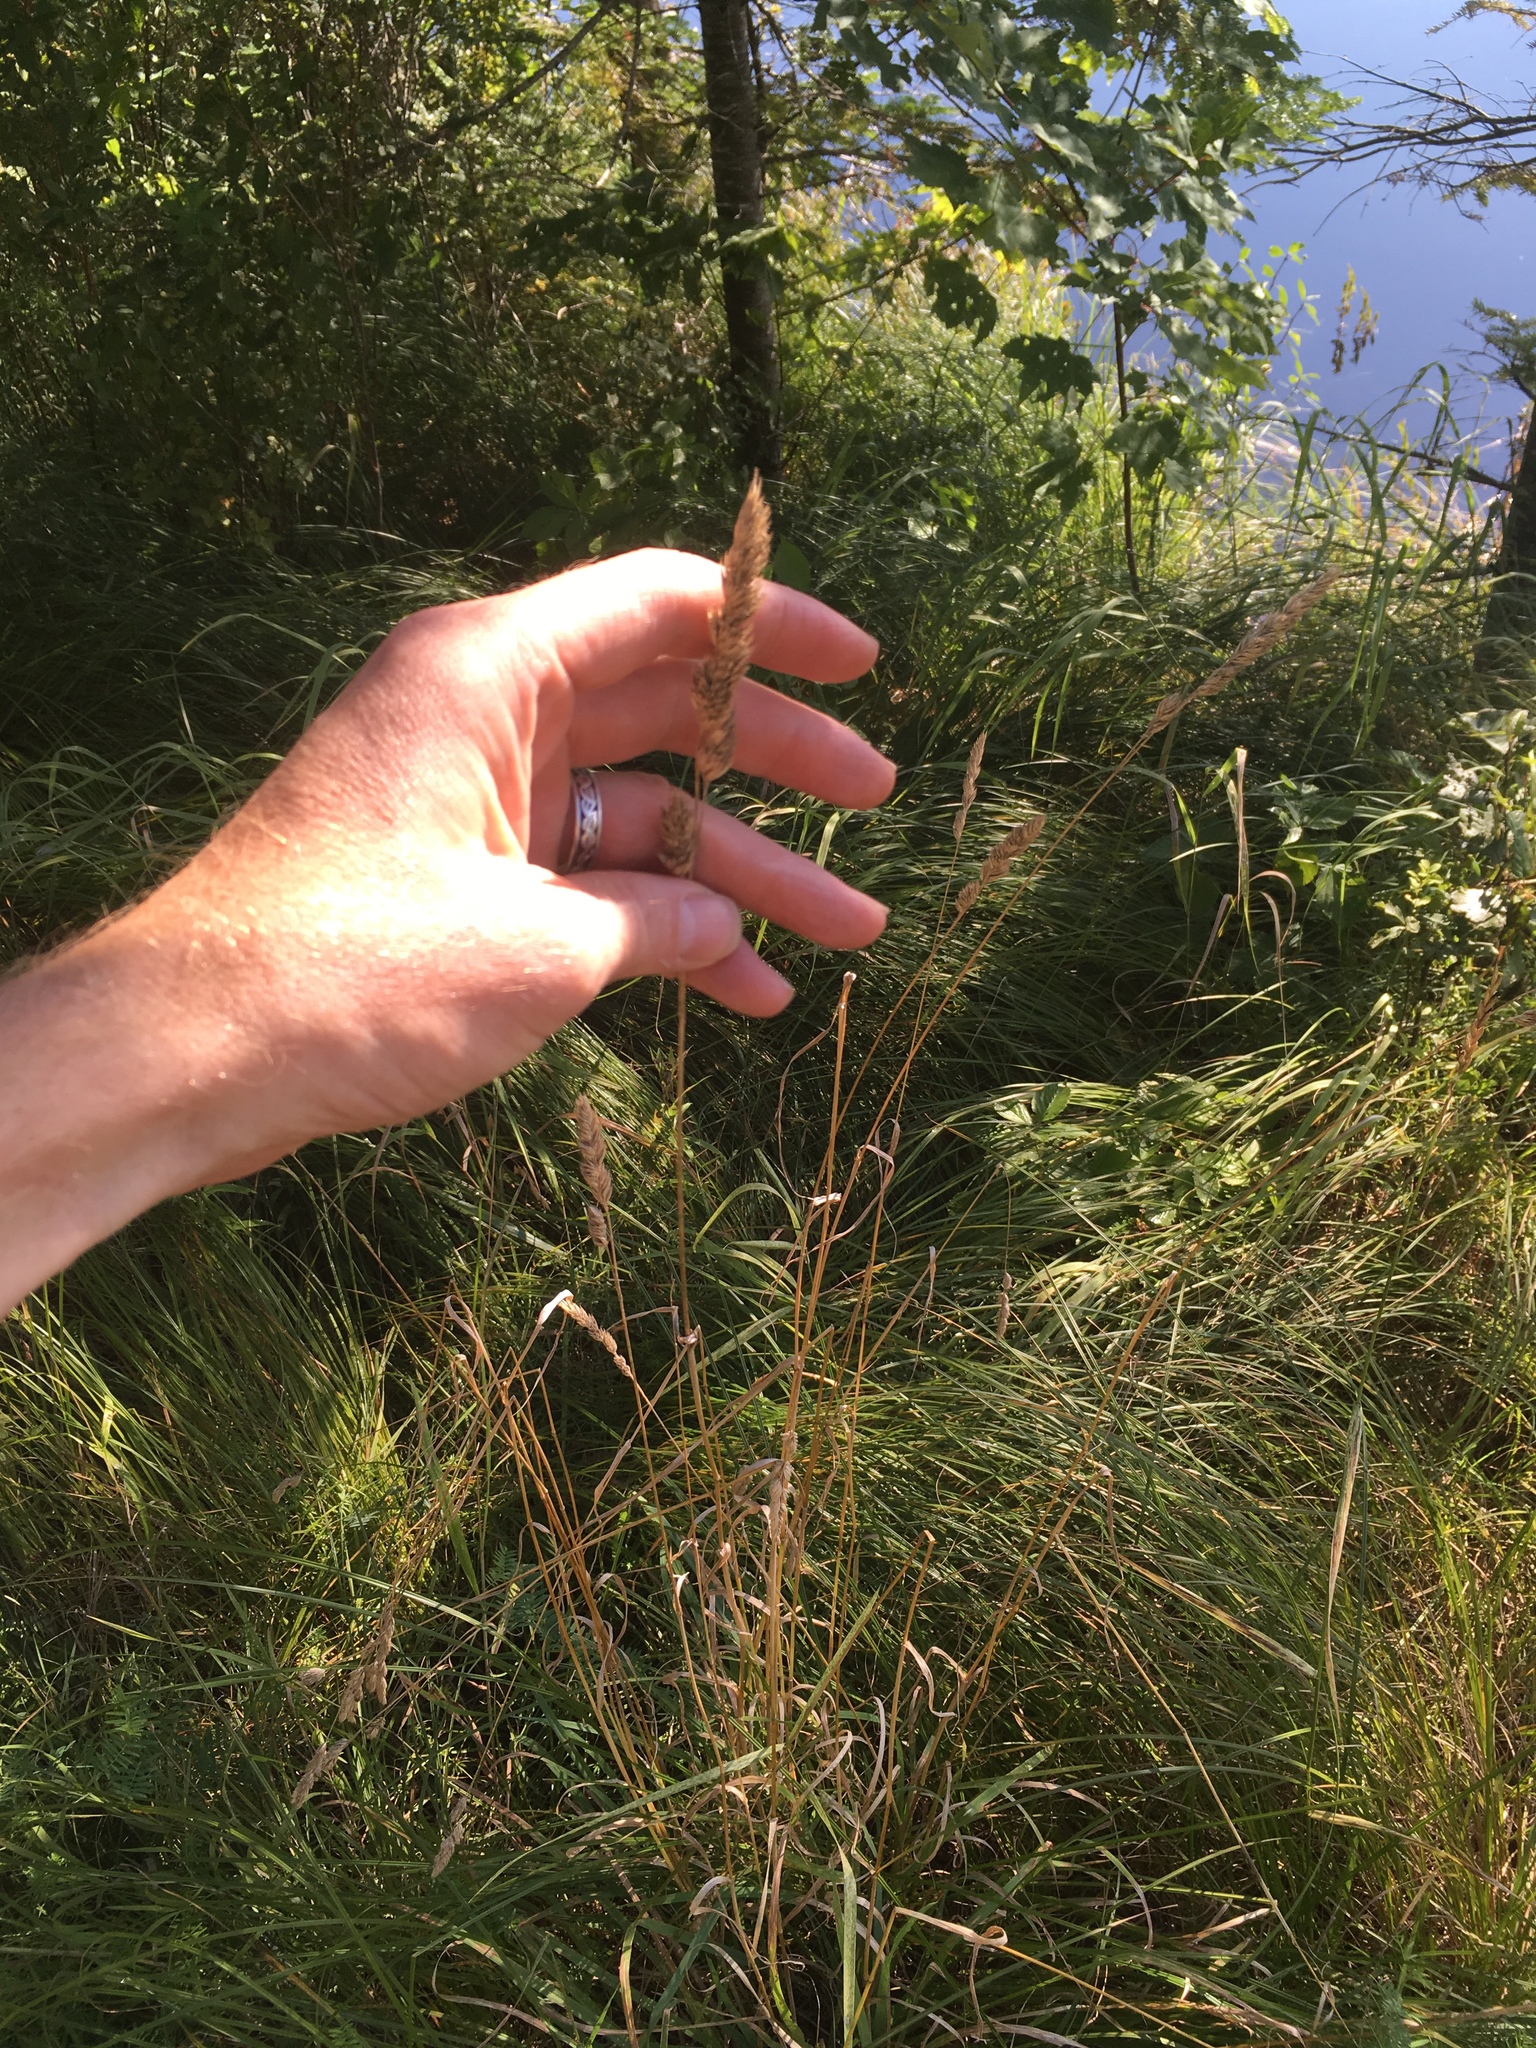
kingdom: Plantae
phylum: Tracheophyta
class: Liliopsida
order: Poales
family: Poaceae
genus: Dactylis
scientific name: Dactylis glomerata
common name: Orchardgrass
